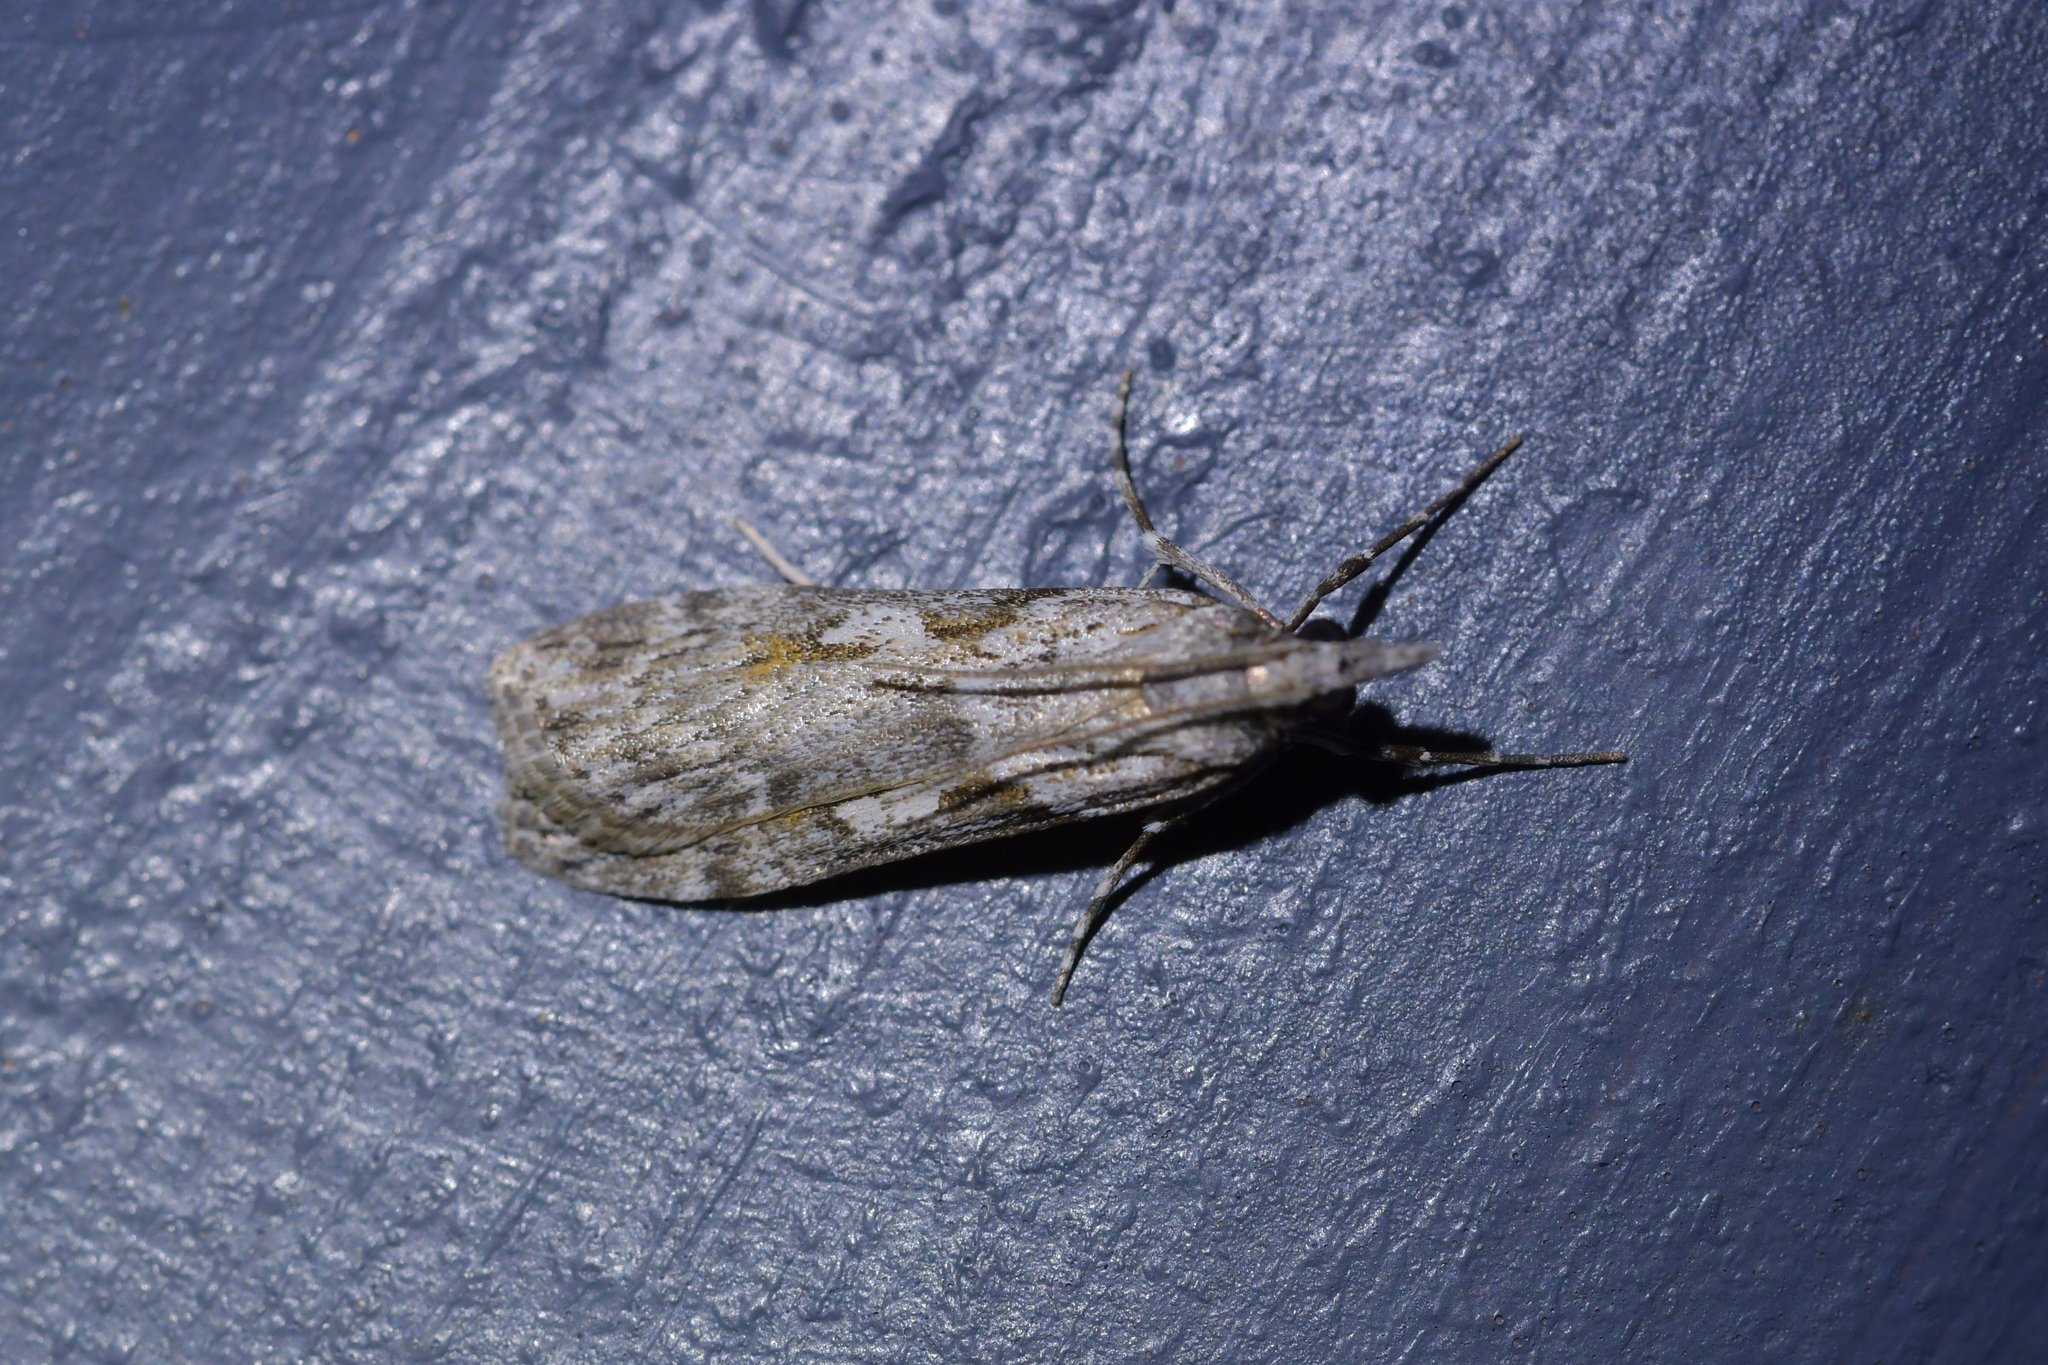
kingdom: Animalia
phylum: Arthropoda
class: Insecta
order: Lepidoptera
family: Crambidae
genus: Scoparia
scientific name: Scoparia halopis
